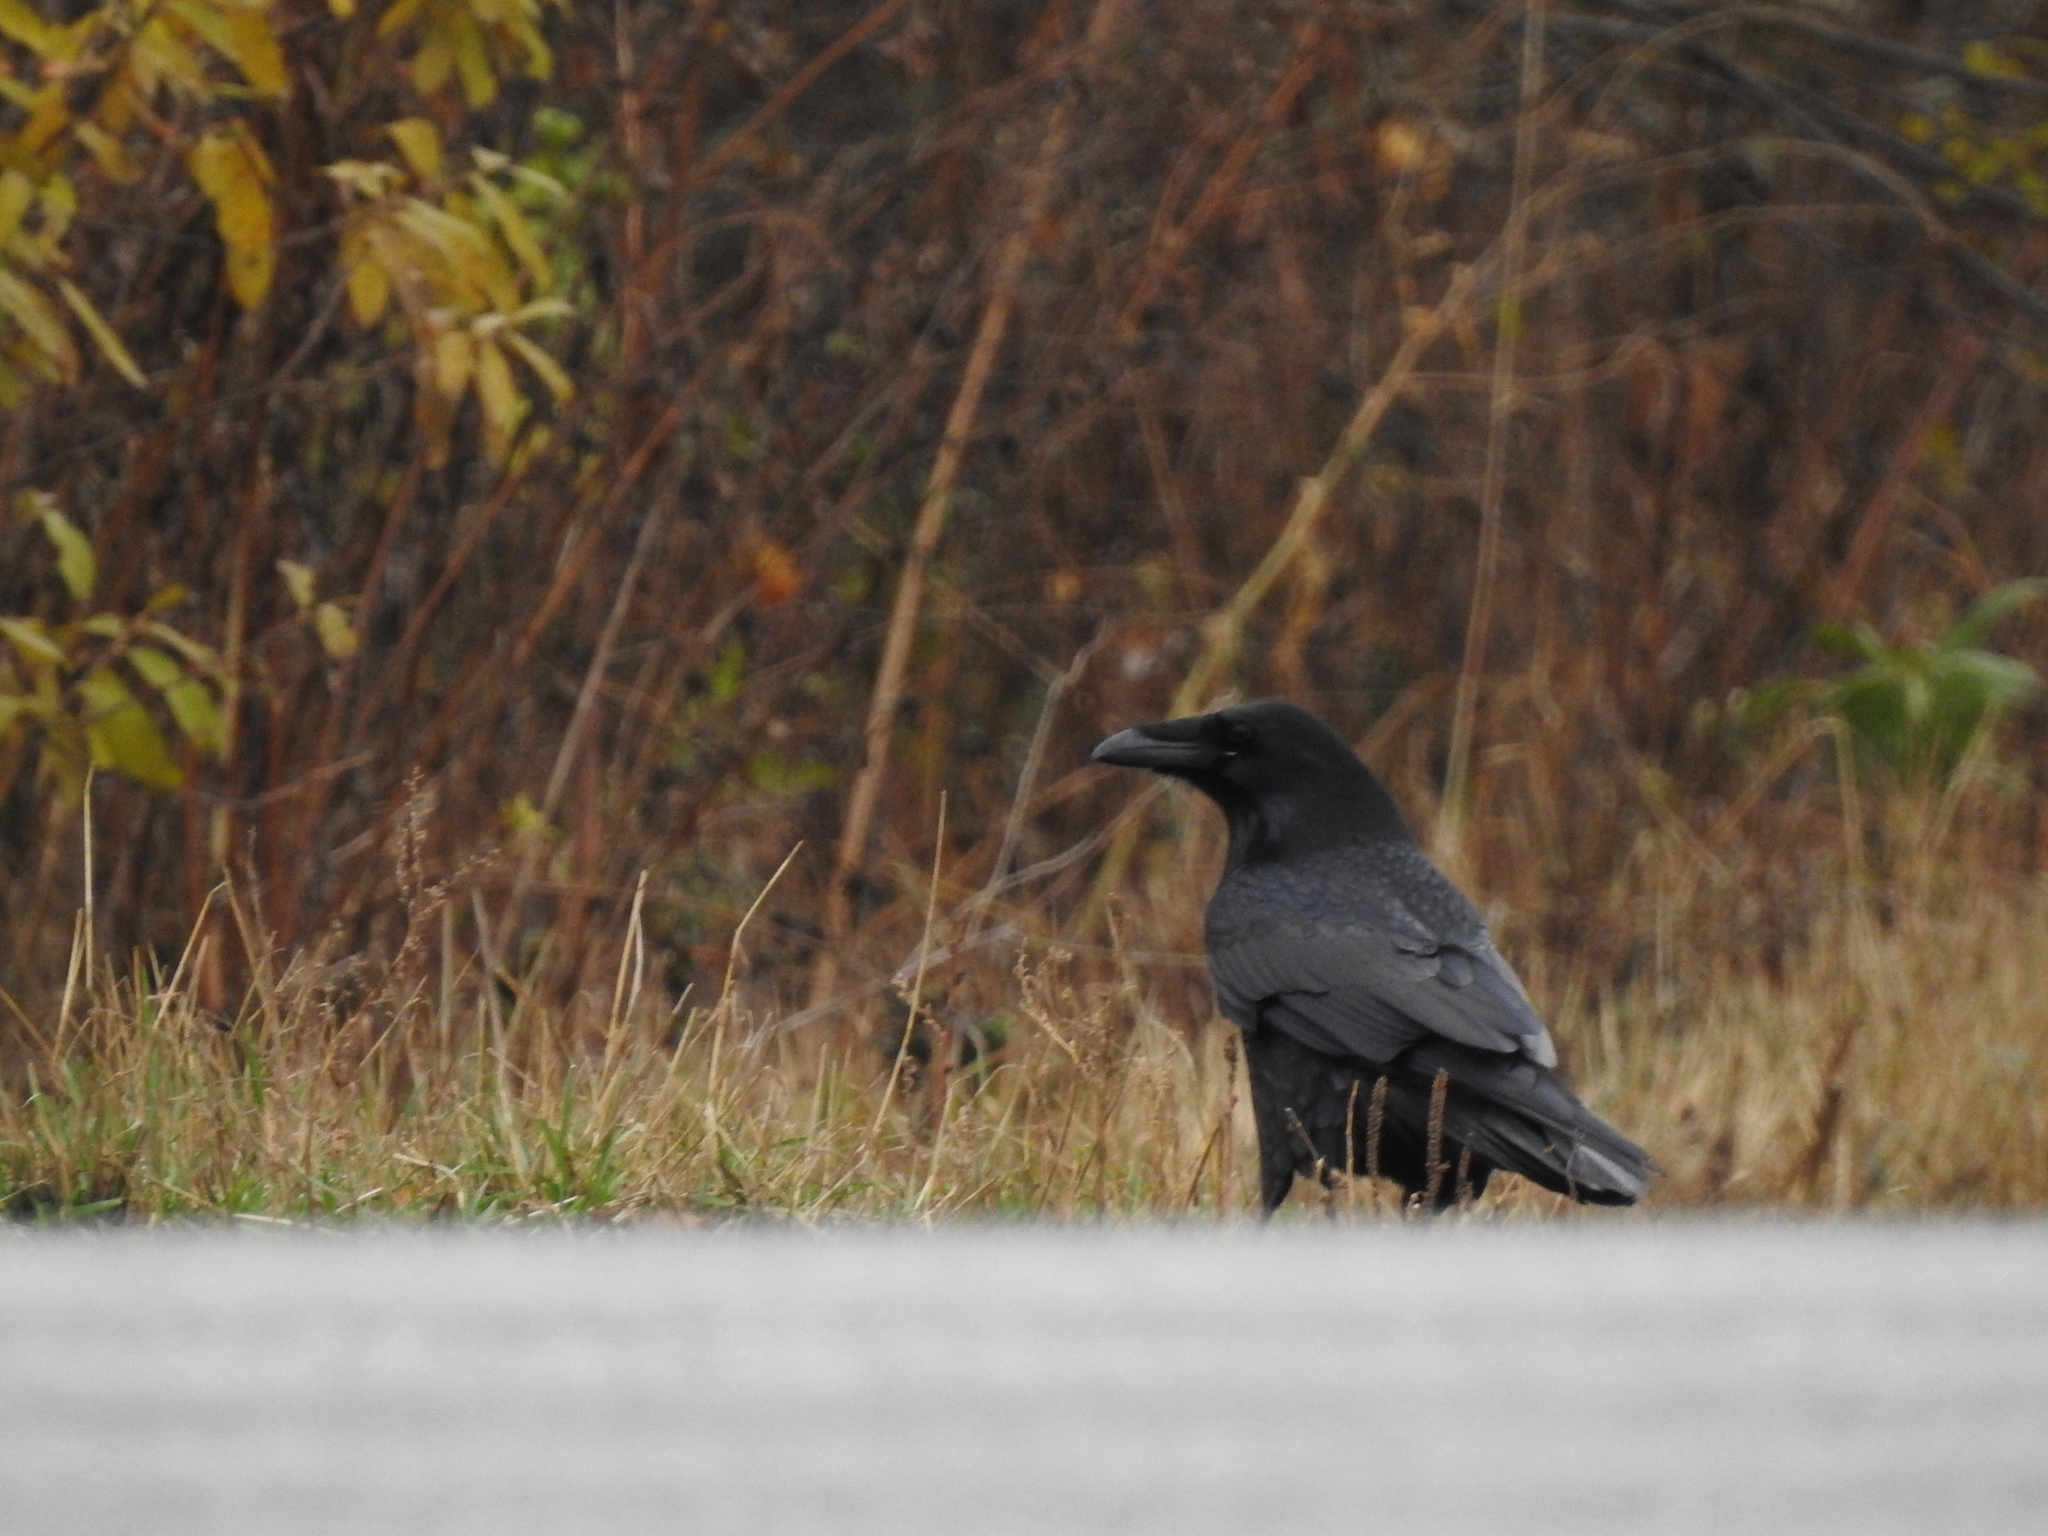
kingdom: Animalia
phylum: Chordata
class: Aves
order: Passeriformes
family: Corvidae
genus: Corvus
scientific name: Corvus corax
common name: Common raven
